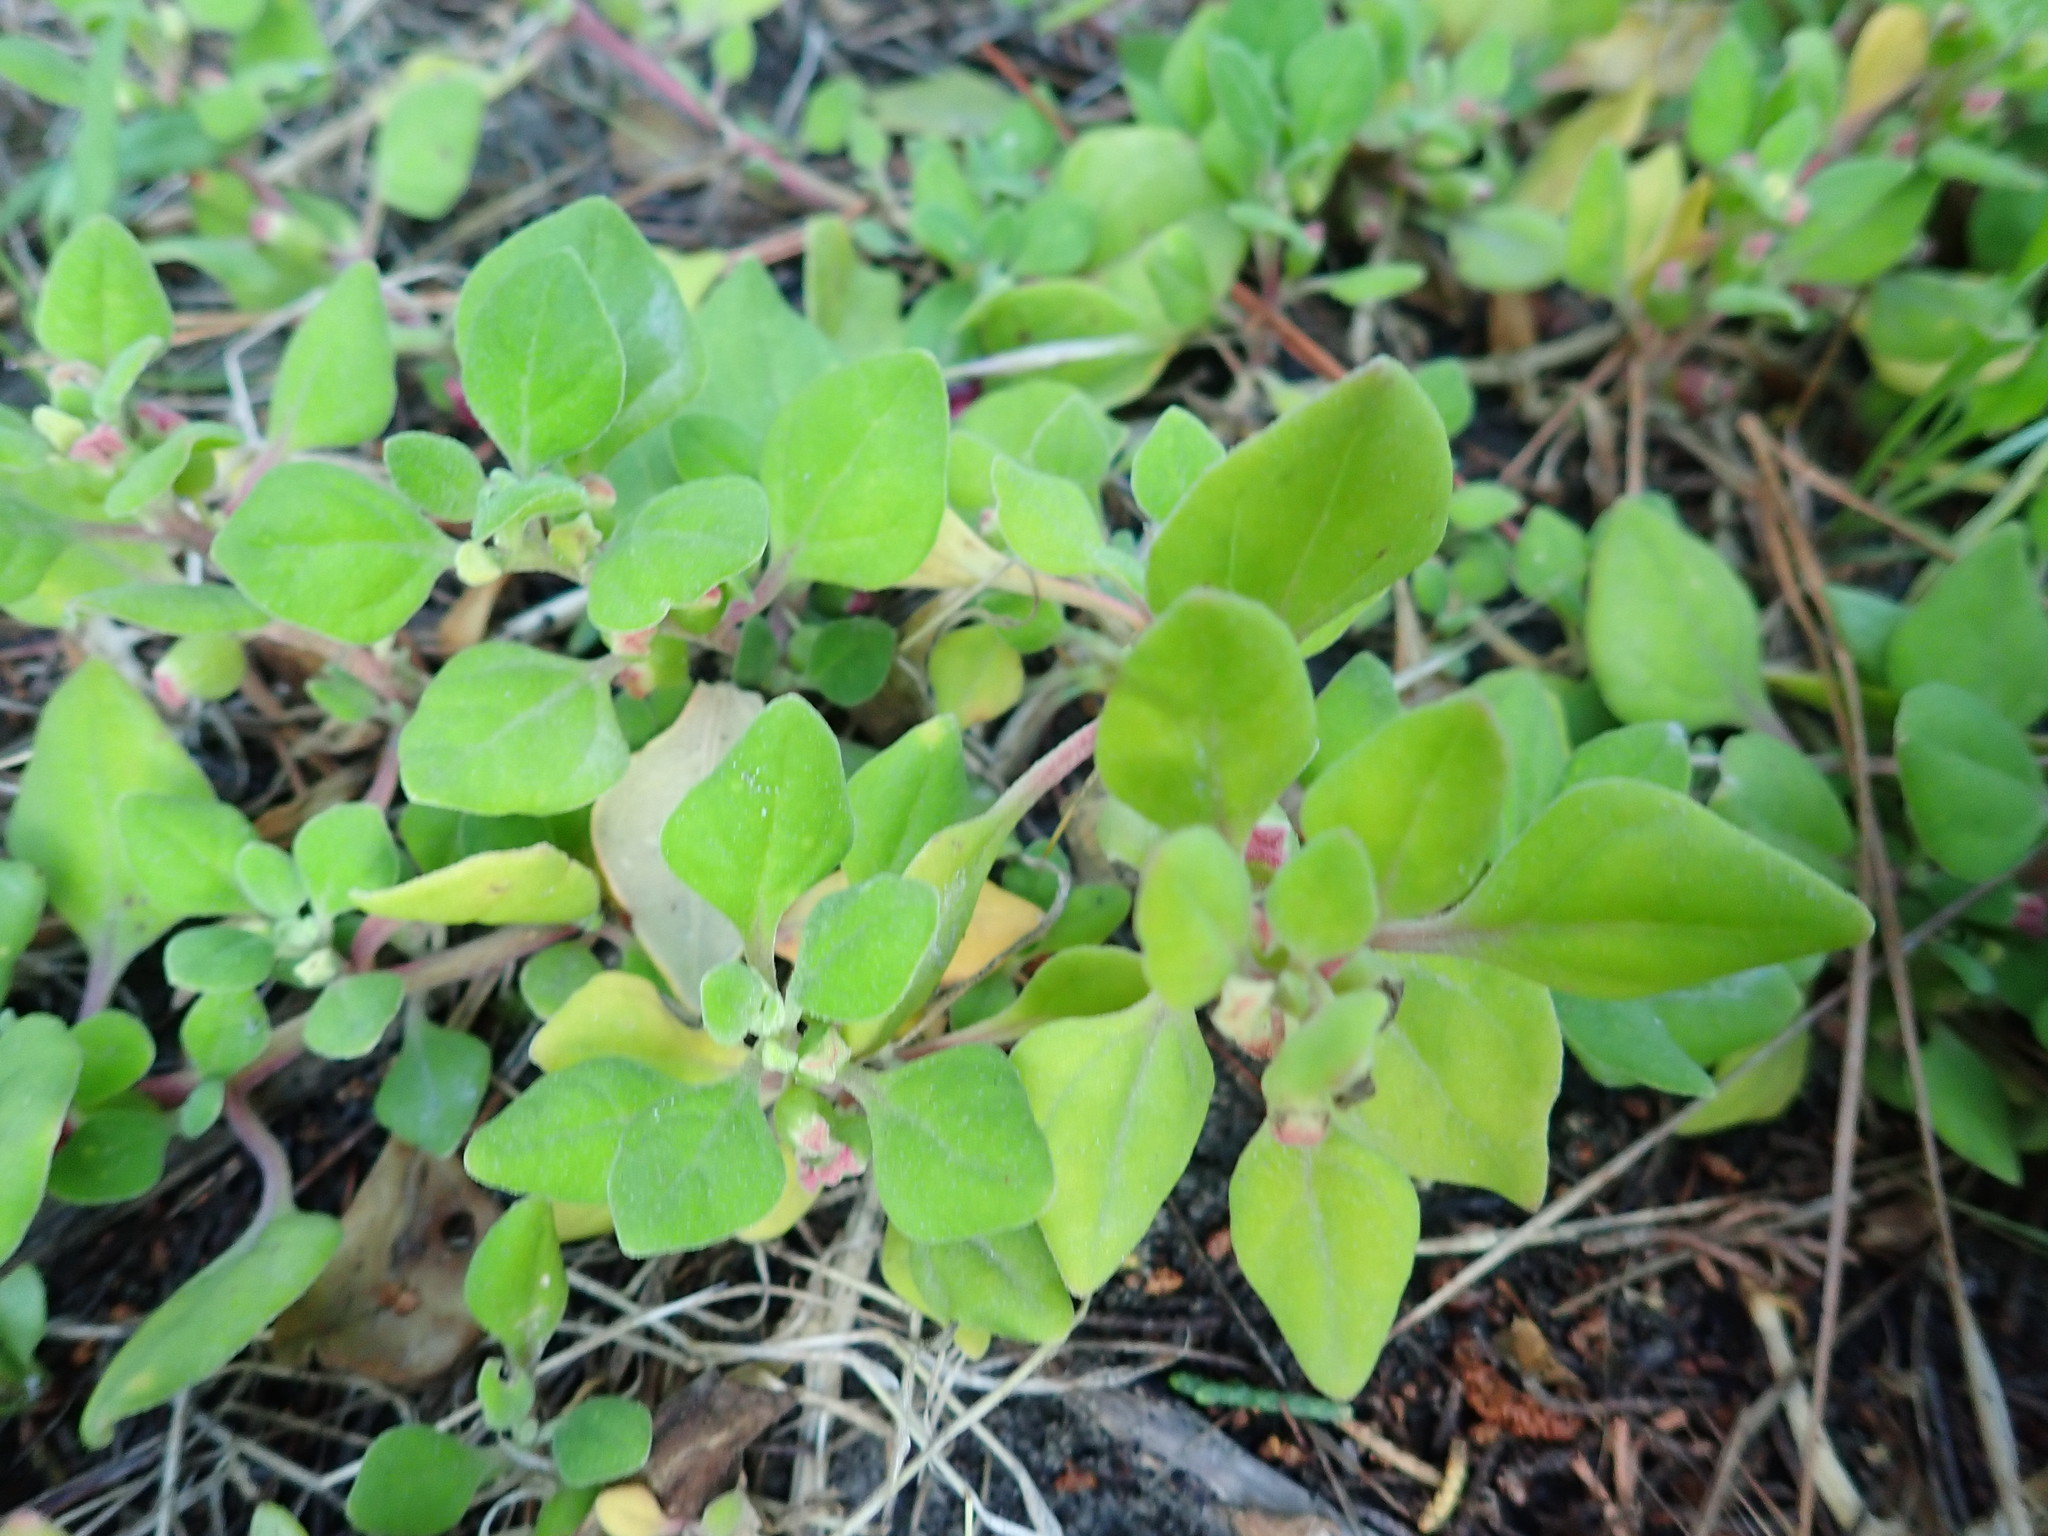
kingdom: Plantae
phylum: Tracheophyta
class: Magnoliopsida
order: Caryophyllales
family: Aizoaceae
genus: Tetragonia
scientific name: Tetragonia implexicoma
